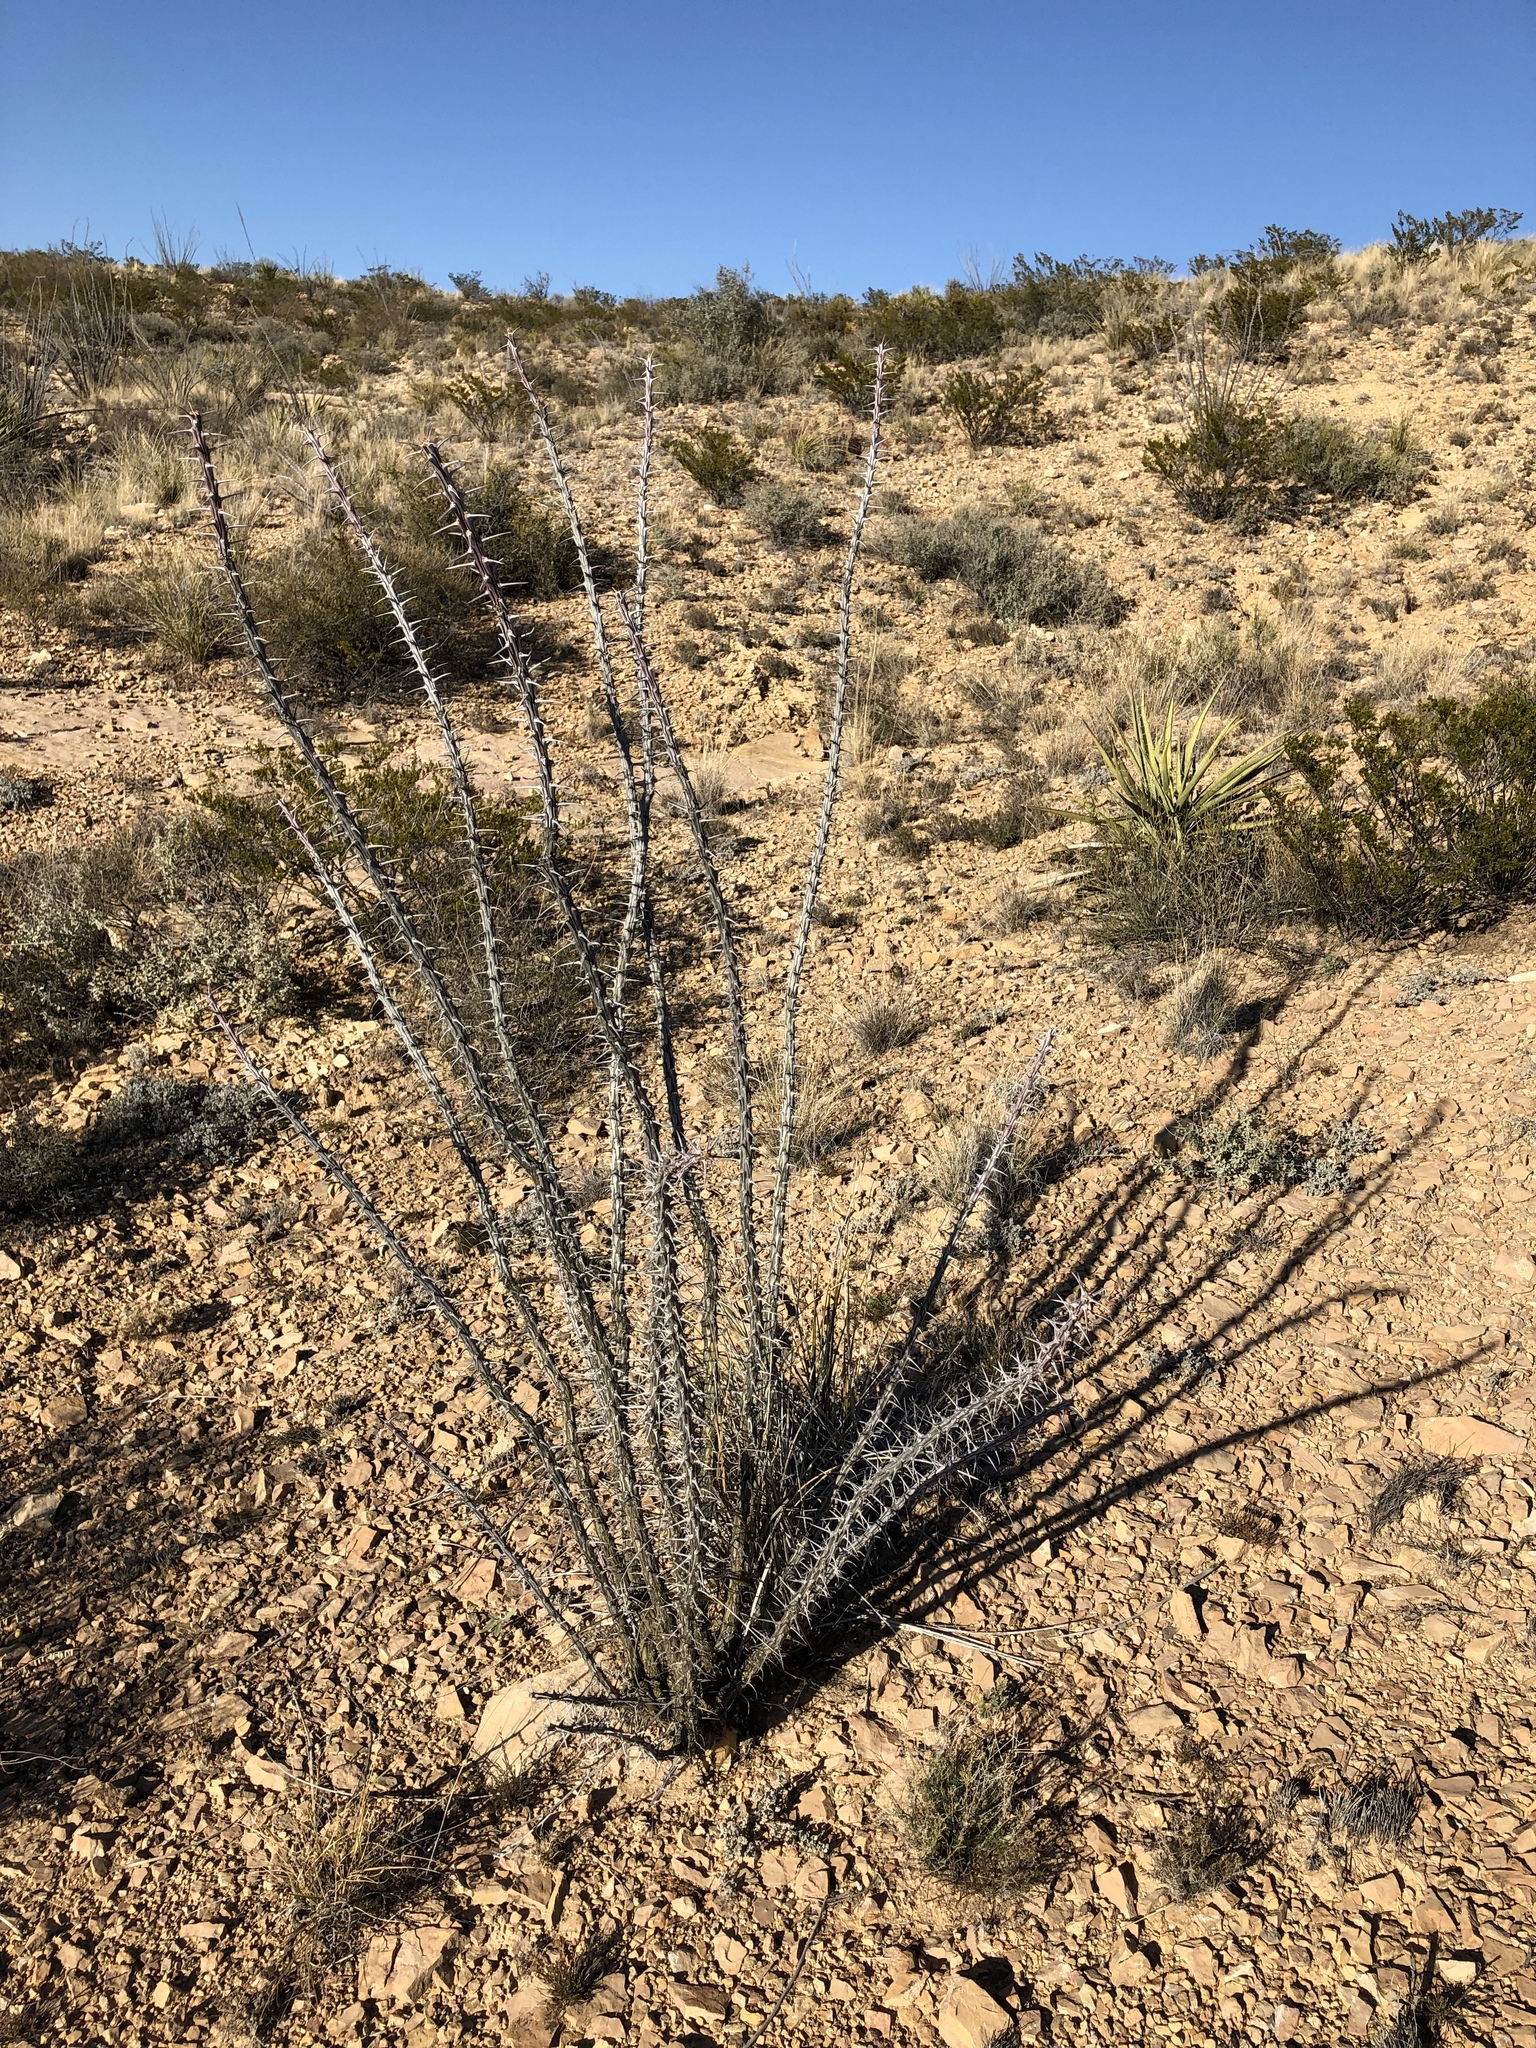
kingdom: Plantae
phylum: Tracheophyta
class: Magnoliopsida
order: Ericales
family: Fouquieriaceae
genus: Fouquieria
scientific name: Fouquieria splendens
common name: Vine-cactus
